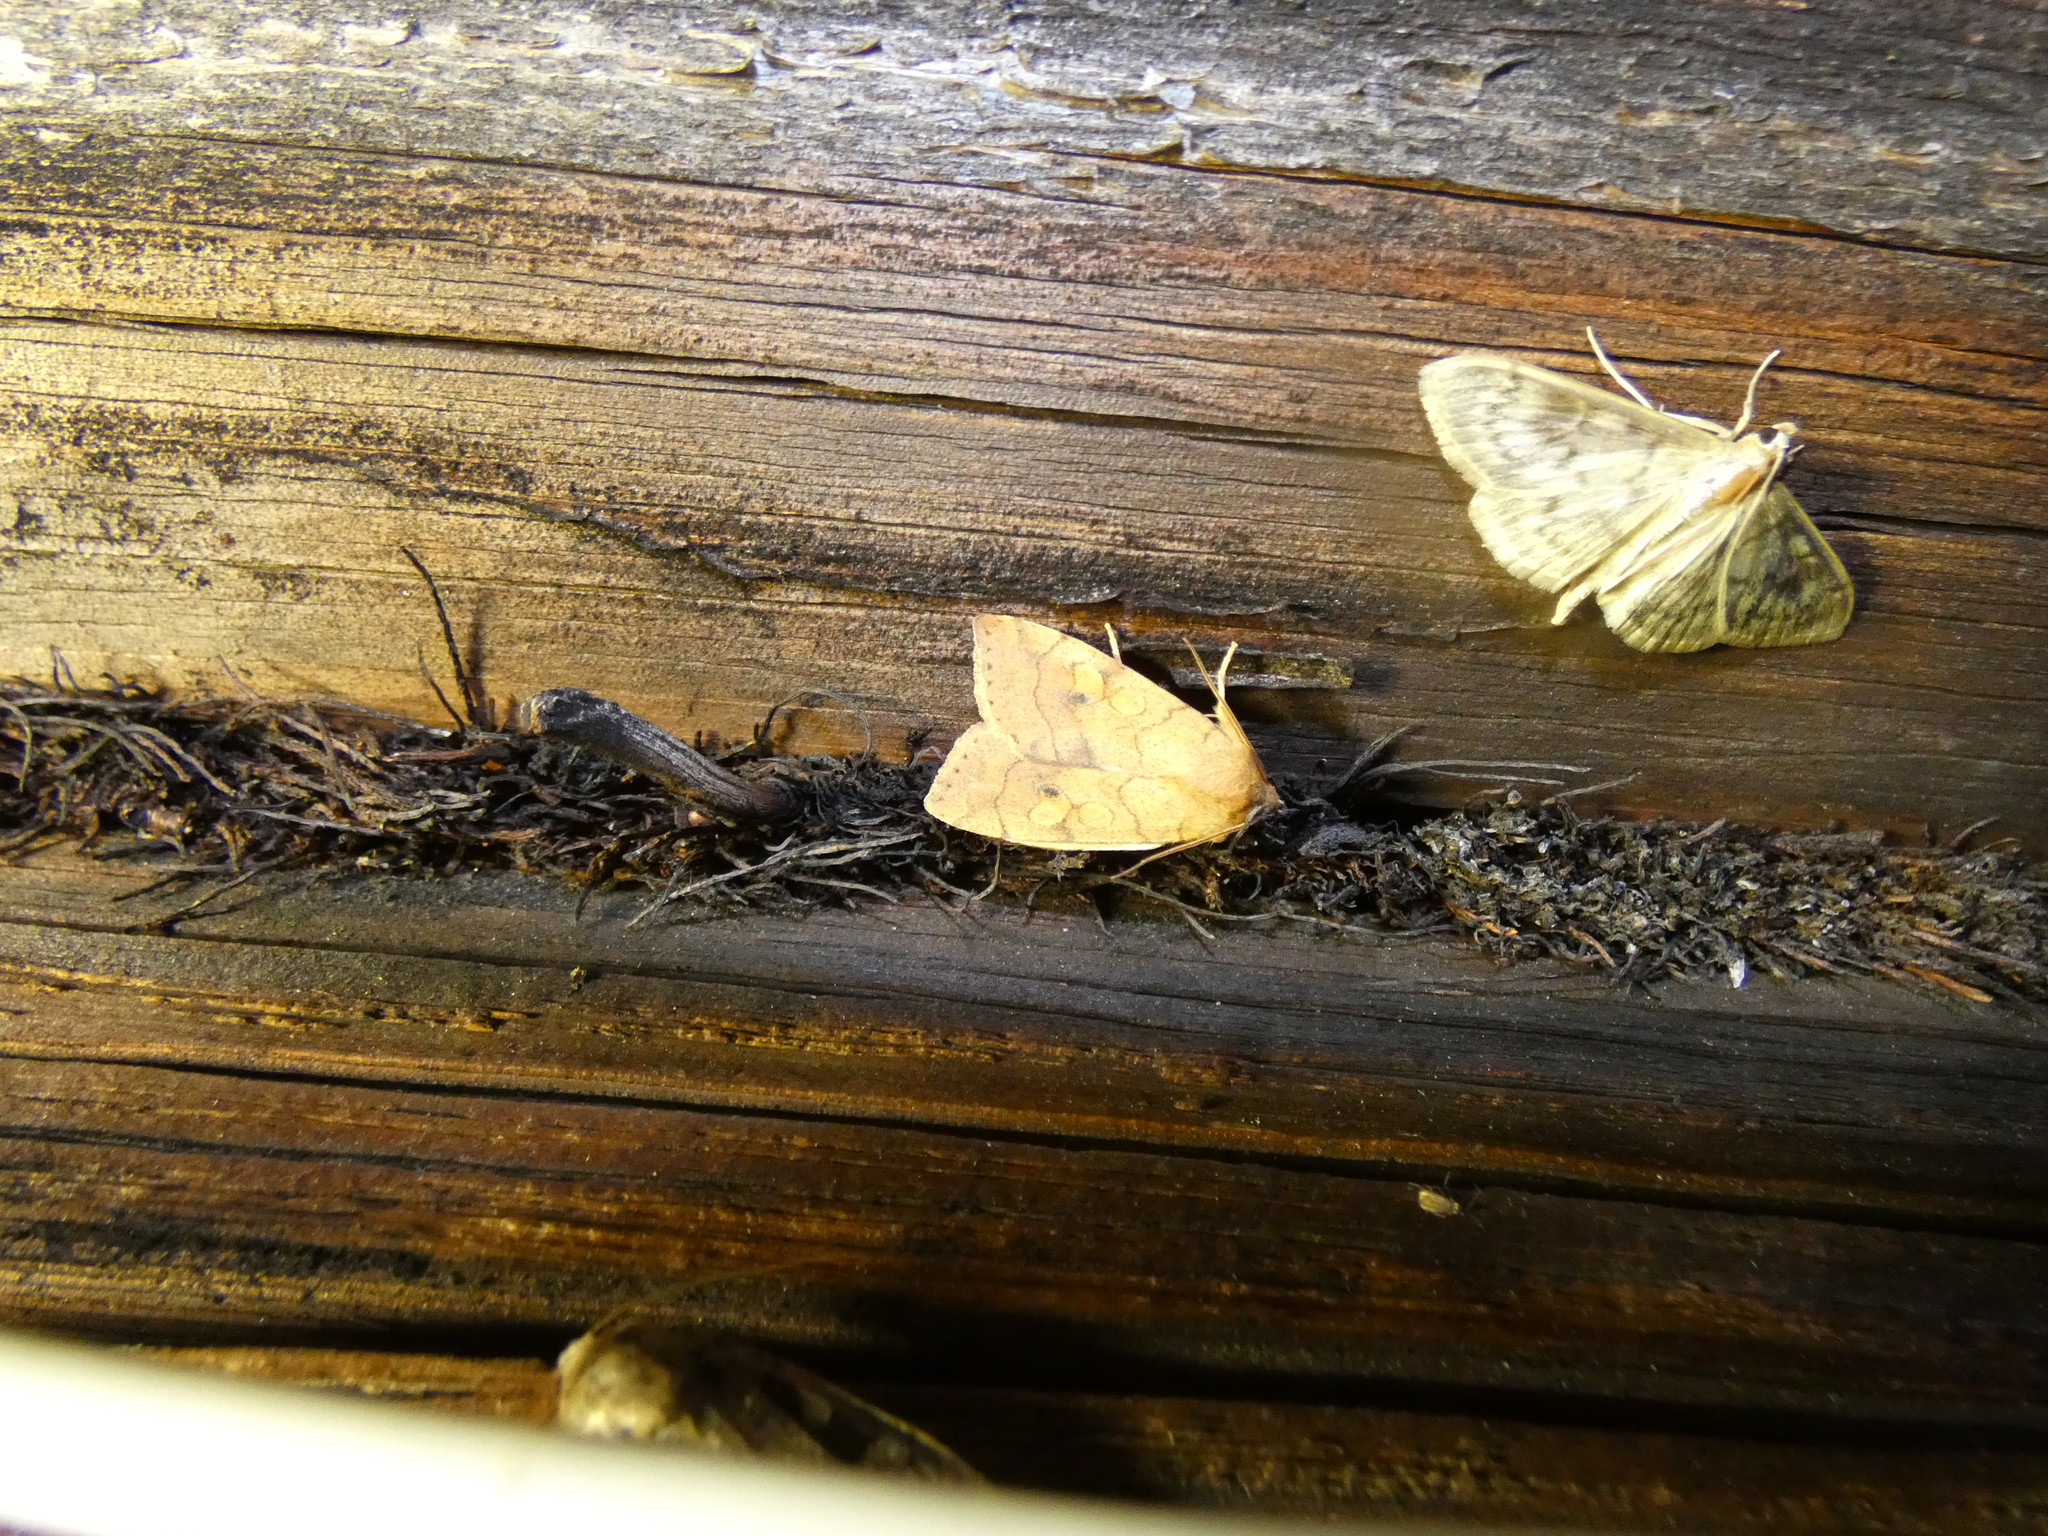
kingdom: Animalia
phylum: Arthropoda
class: Insecta
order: Lepidoptera
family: Noctuidae
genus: Enargia
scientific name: Enargia paleacea
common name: Angle-striped sallow
